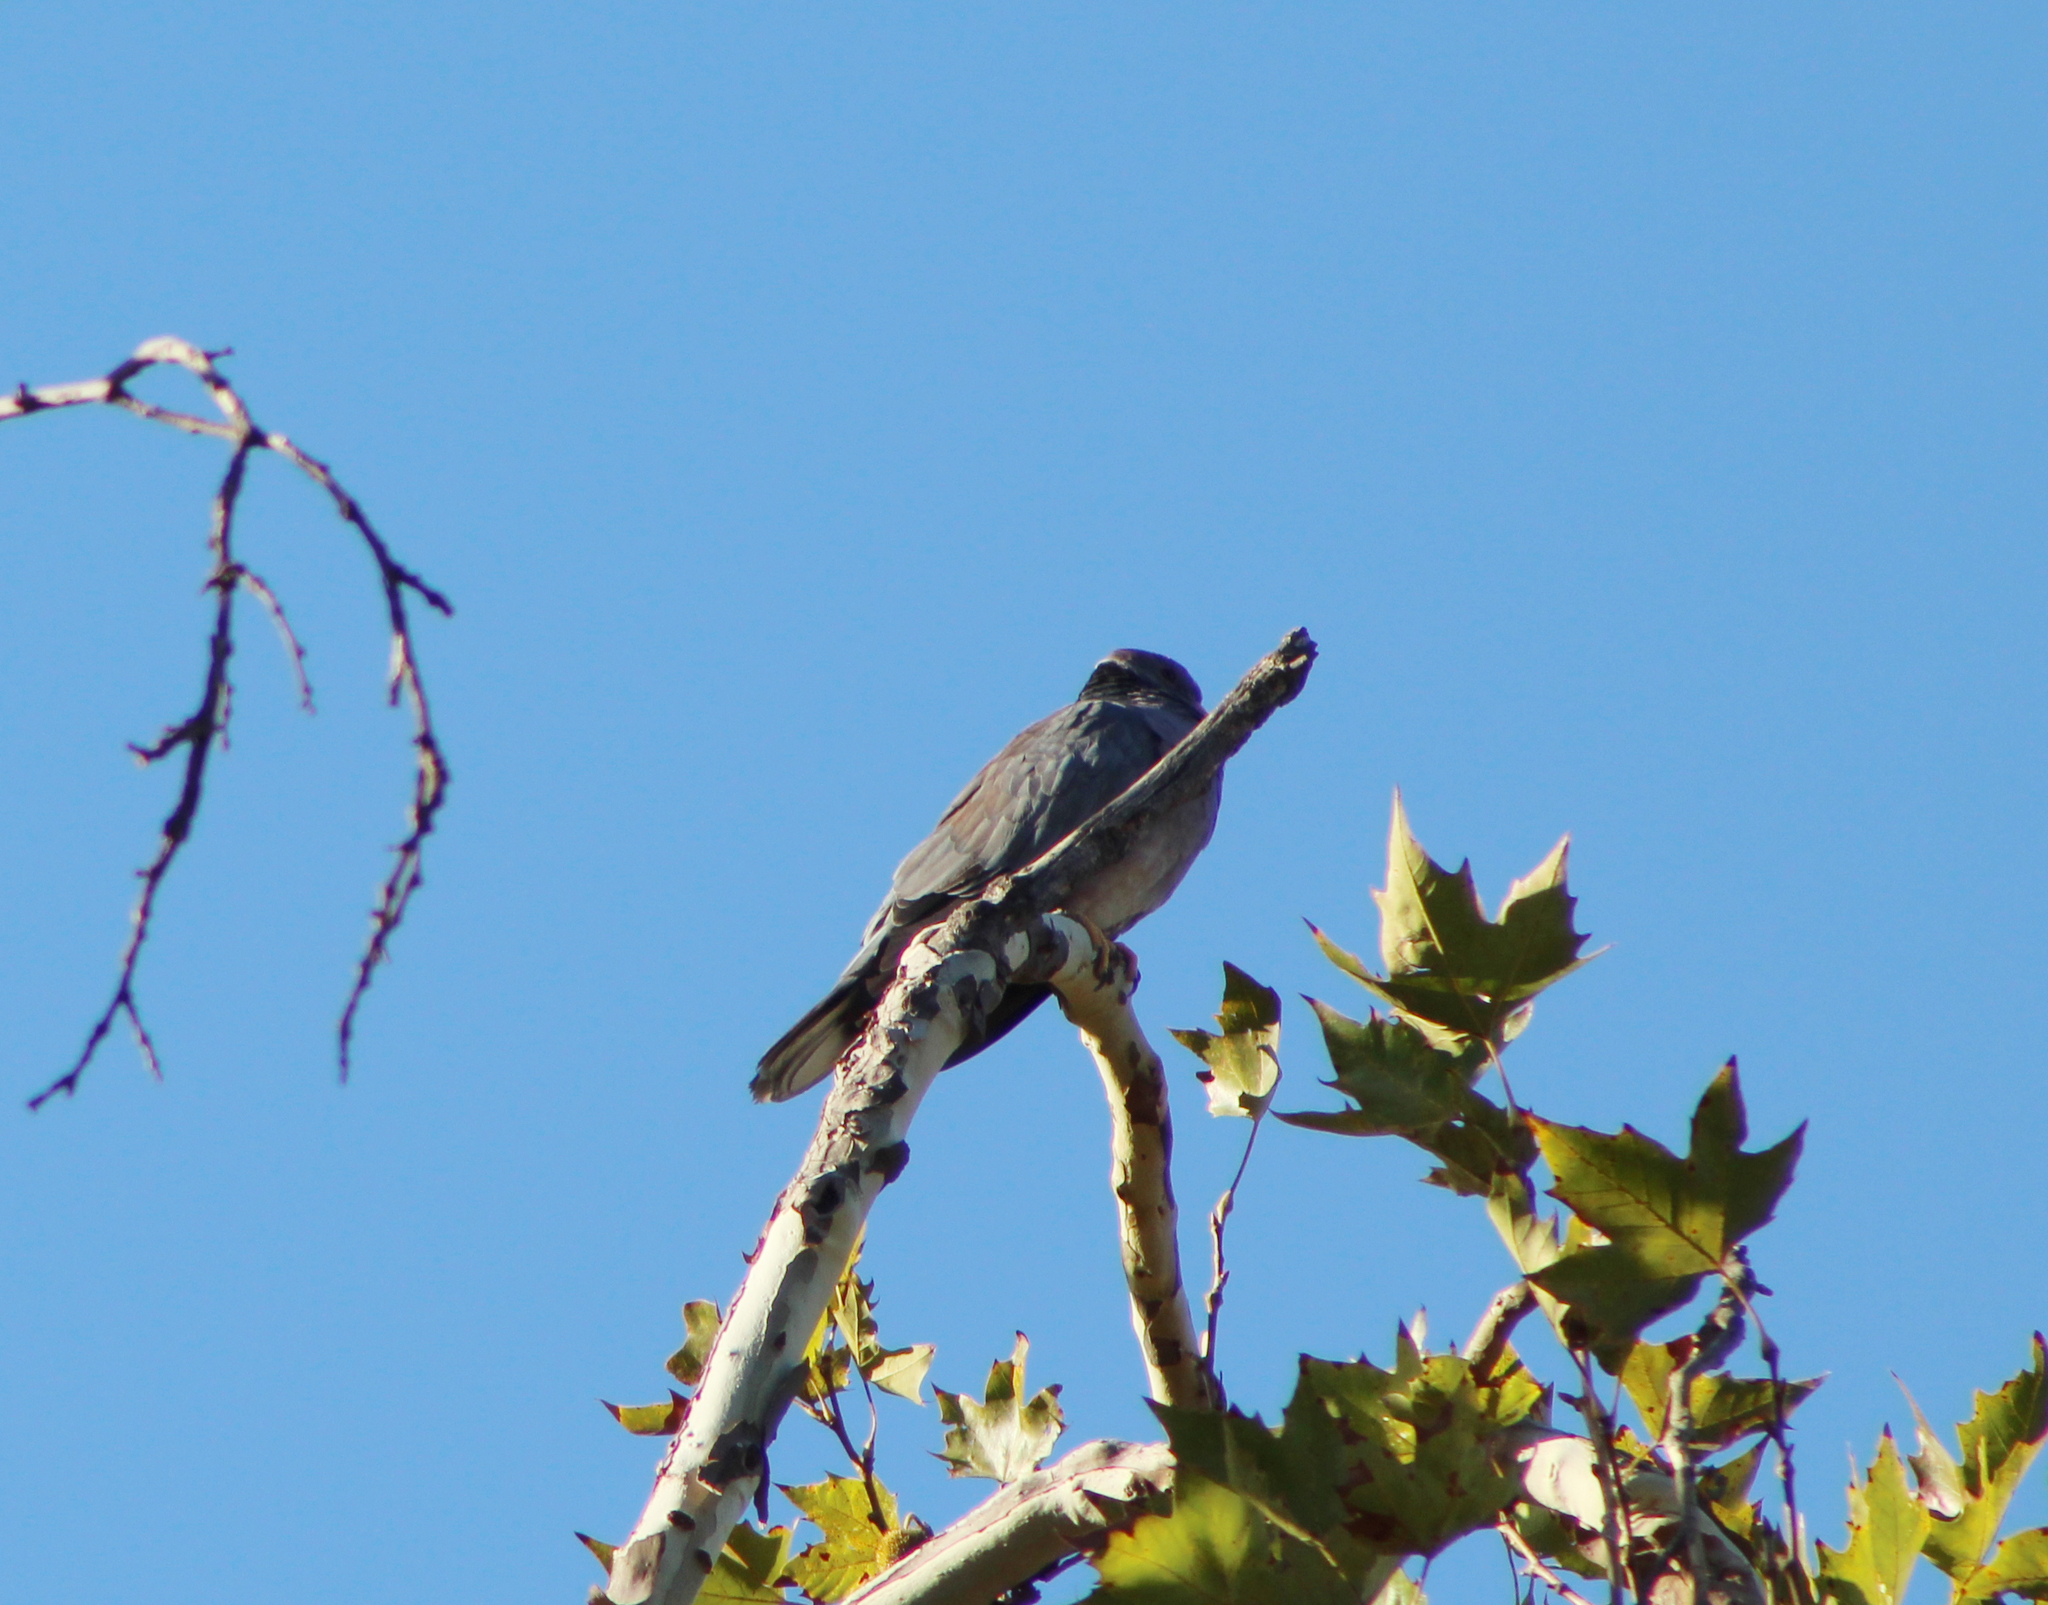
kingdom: Animalia
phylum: Chordata
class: Aves
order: Columbiformes
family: Columbidae
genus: Patagioenas
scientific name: Patagioenas fasciata
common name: Band-tailed pigeon
